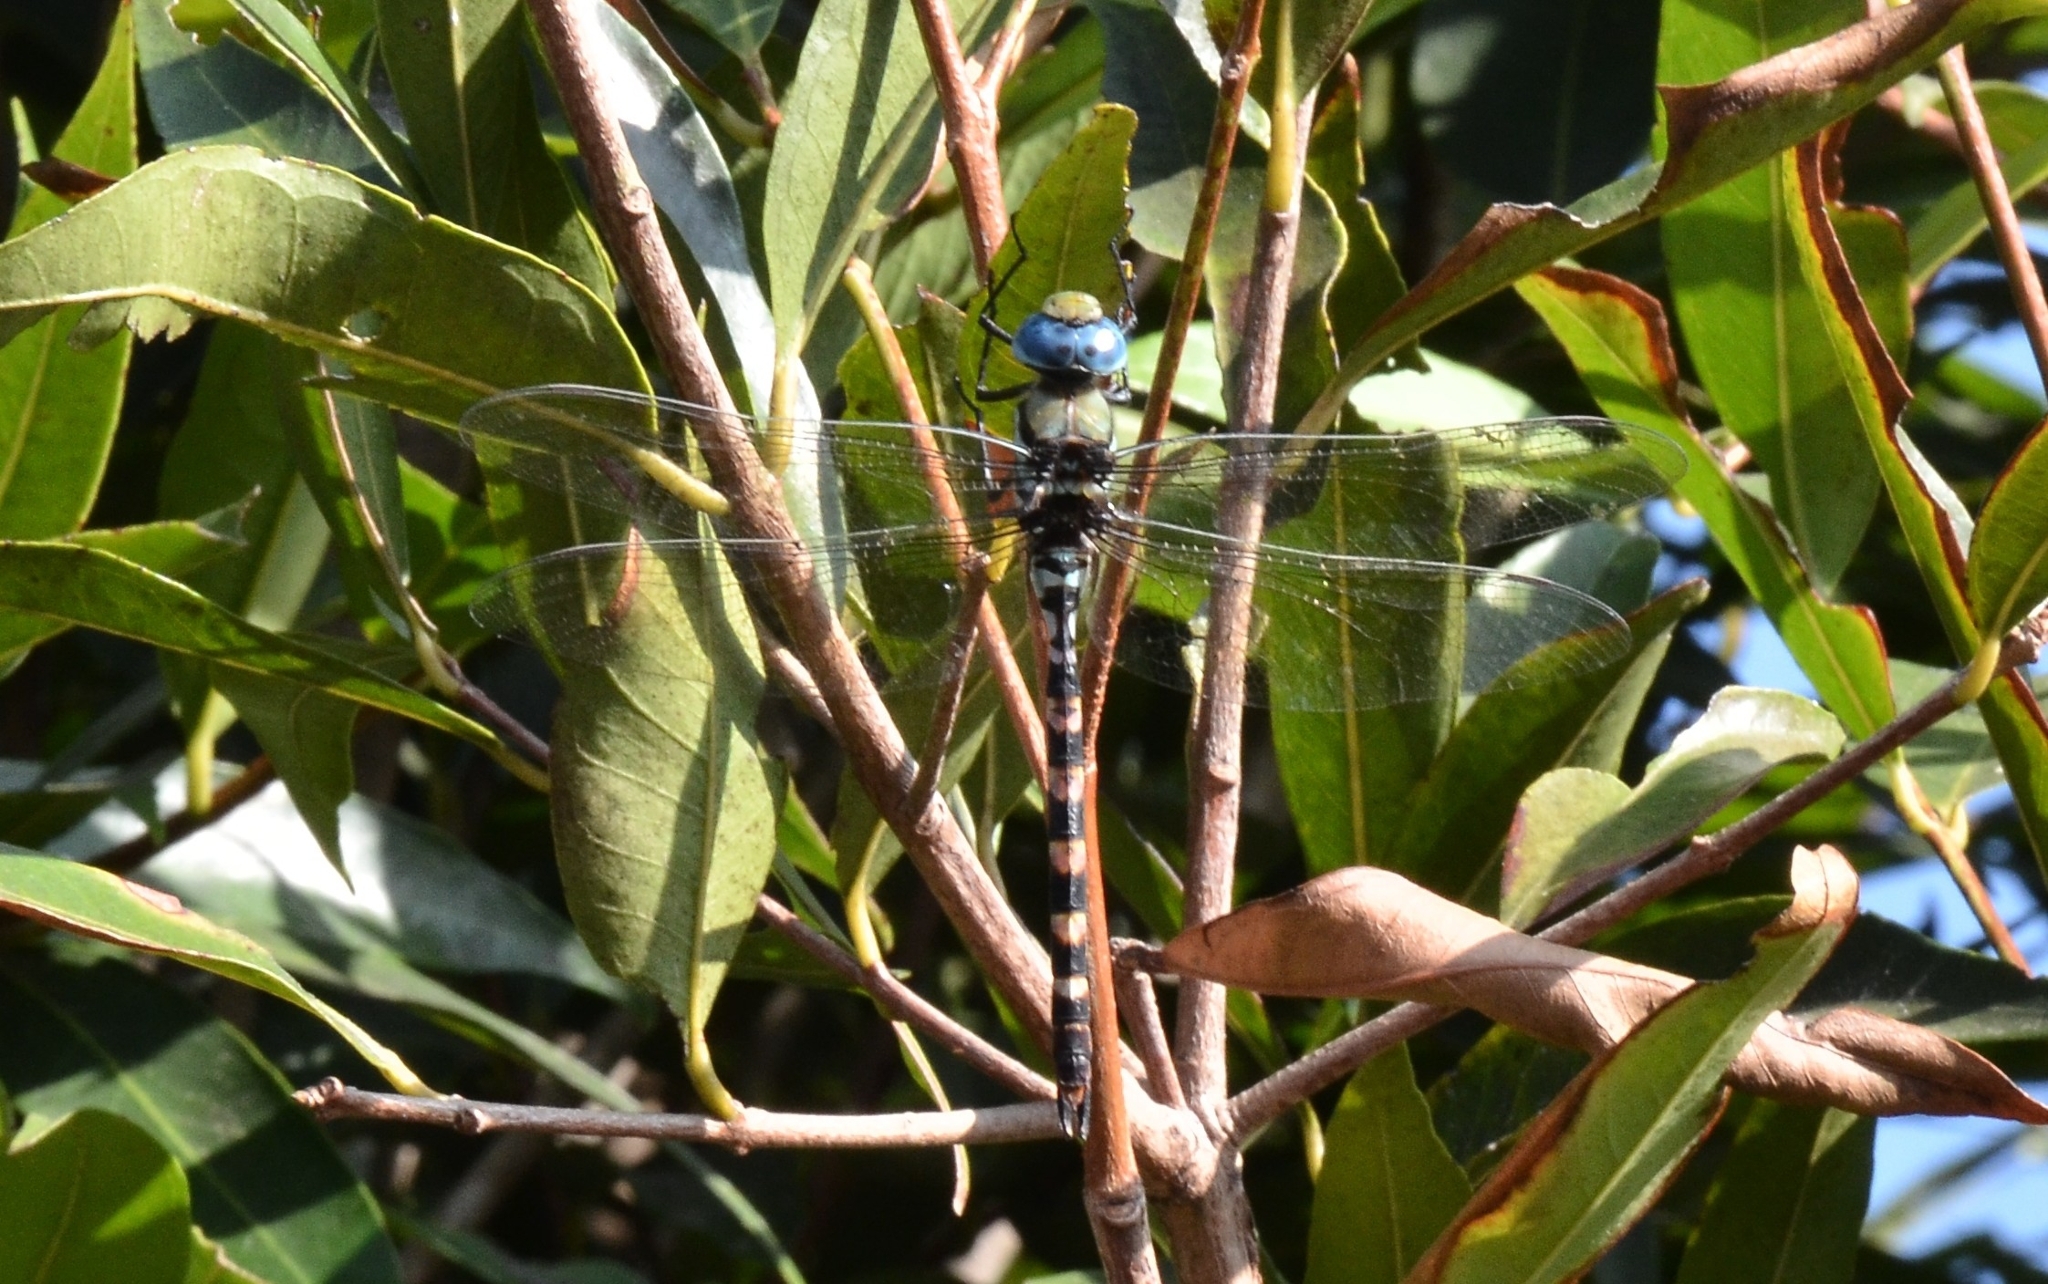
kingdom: Animalia
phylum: Arthropoda
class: Insecta
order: Odonata
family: Aeshnidae
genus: Anax
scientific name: Anax immaculifrons
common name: Magnificent emperor
